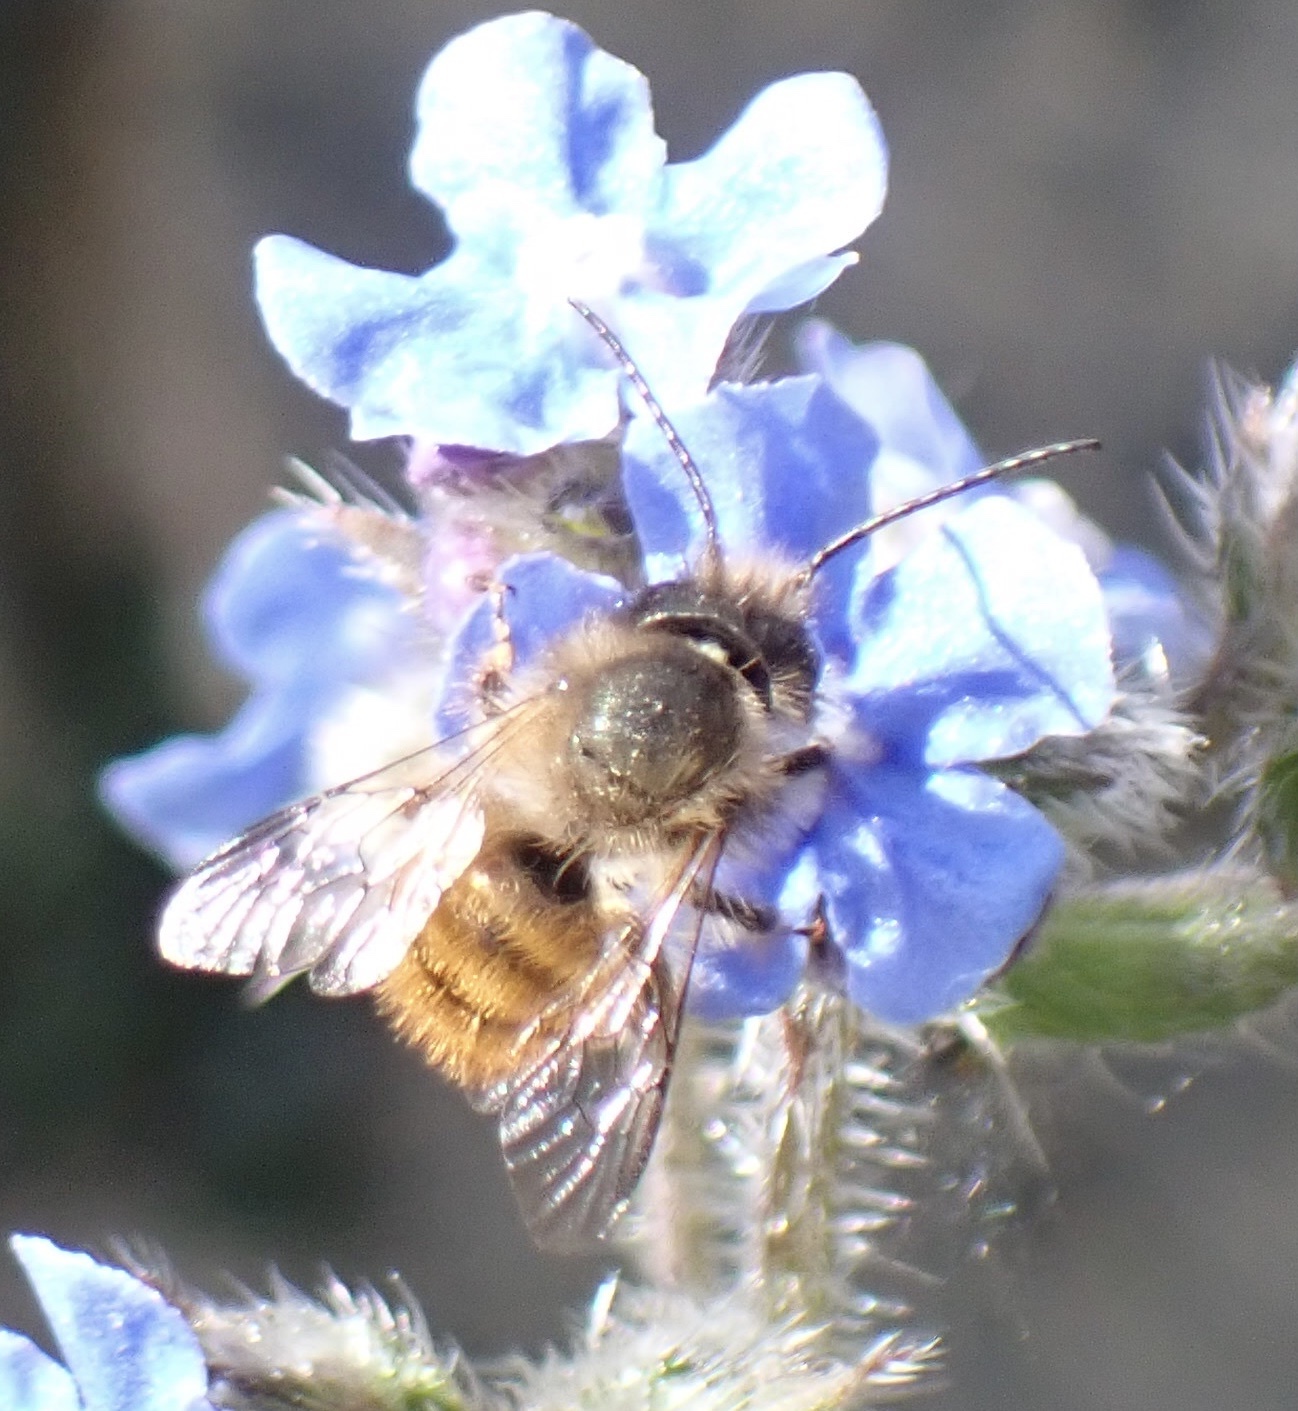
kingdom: Animalia
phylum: Arthropoda
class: Insecta
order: Hymenoptera
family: Megachilidae
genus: Osmia
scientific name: Osmia bicornis
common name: Red mason bee
